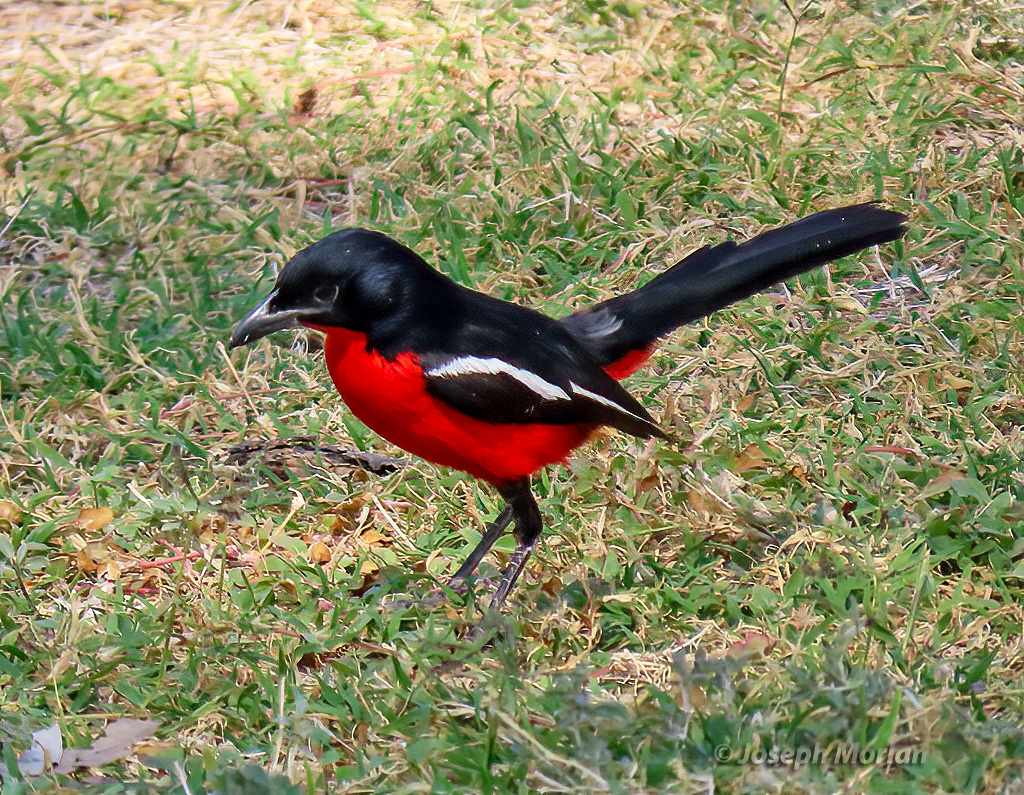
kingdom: Animalia
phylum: Chordata
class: Aves
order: Passeriformes
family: Malaconotidae
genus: Laniarius
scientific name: Laniarius atrococcineus
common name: Crimson-breasted shrike
